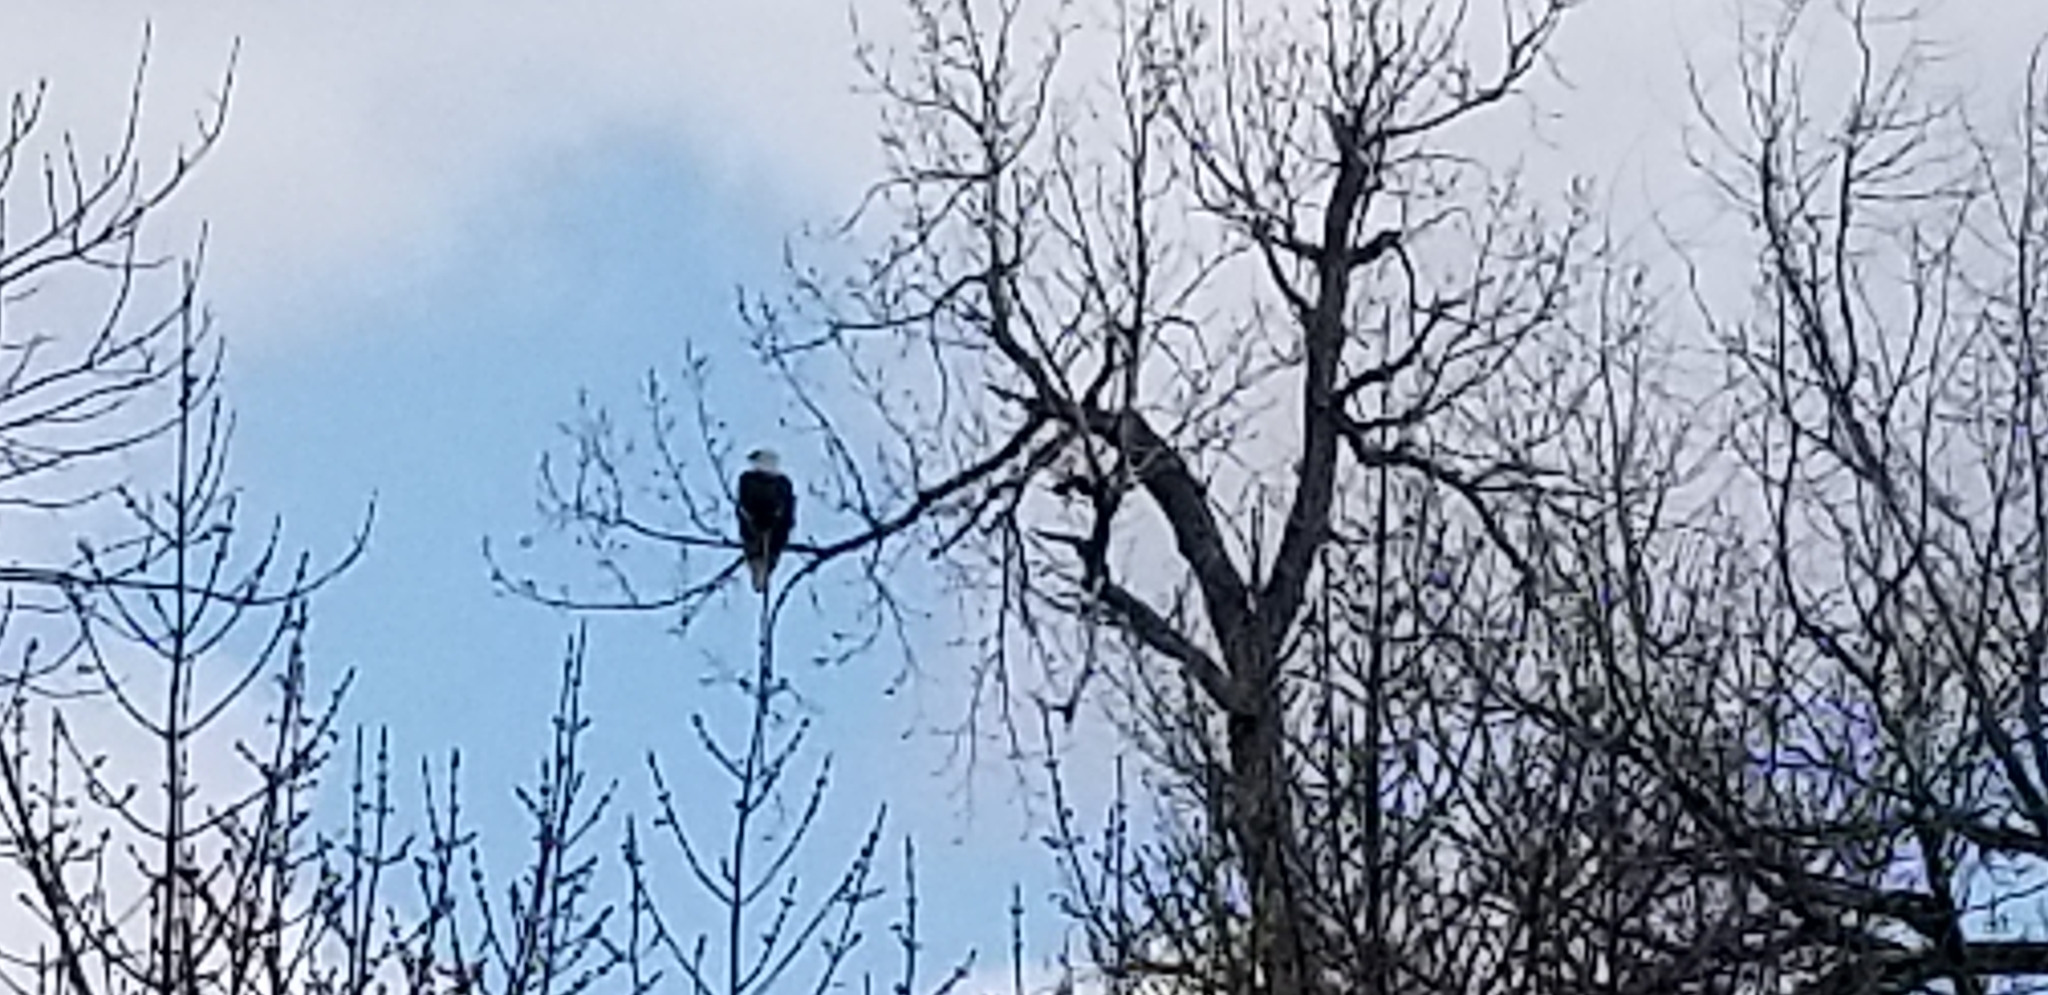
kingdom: Animalia
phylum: Chordata
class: Aves
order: Accipitriformes
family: Accipitridae
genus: Haliaeetus
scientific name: Haliaeetus leucocephalus
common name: Bald eagle
